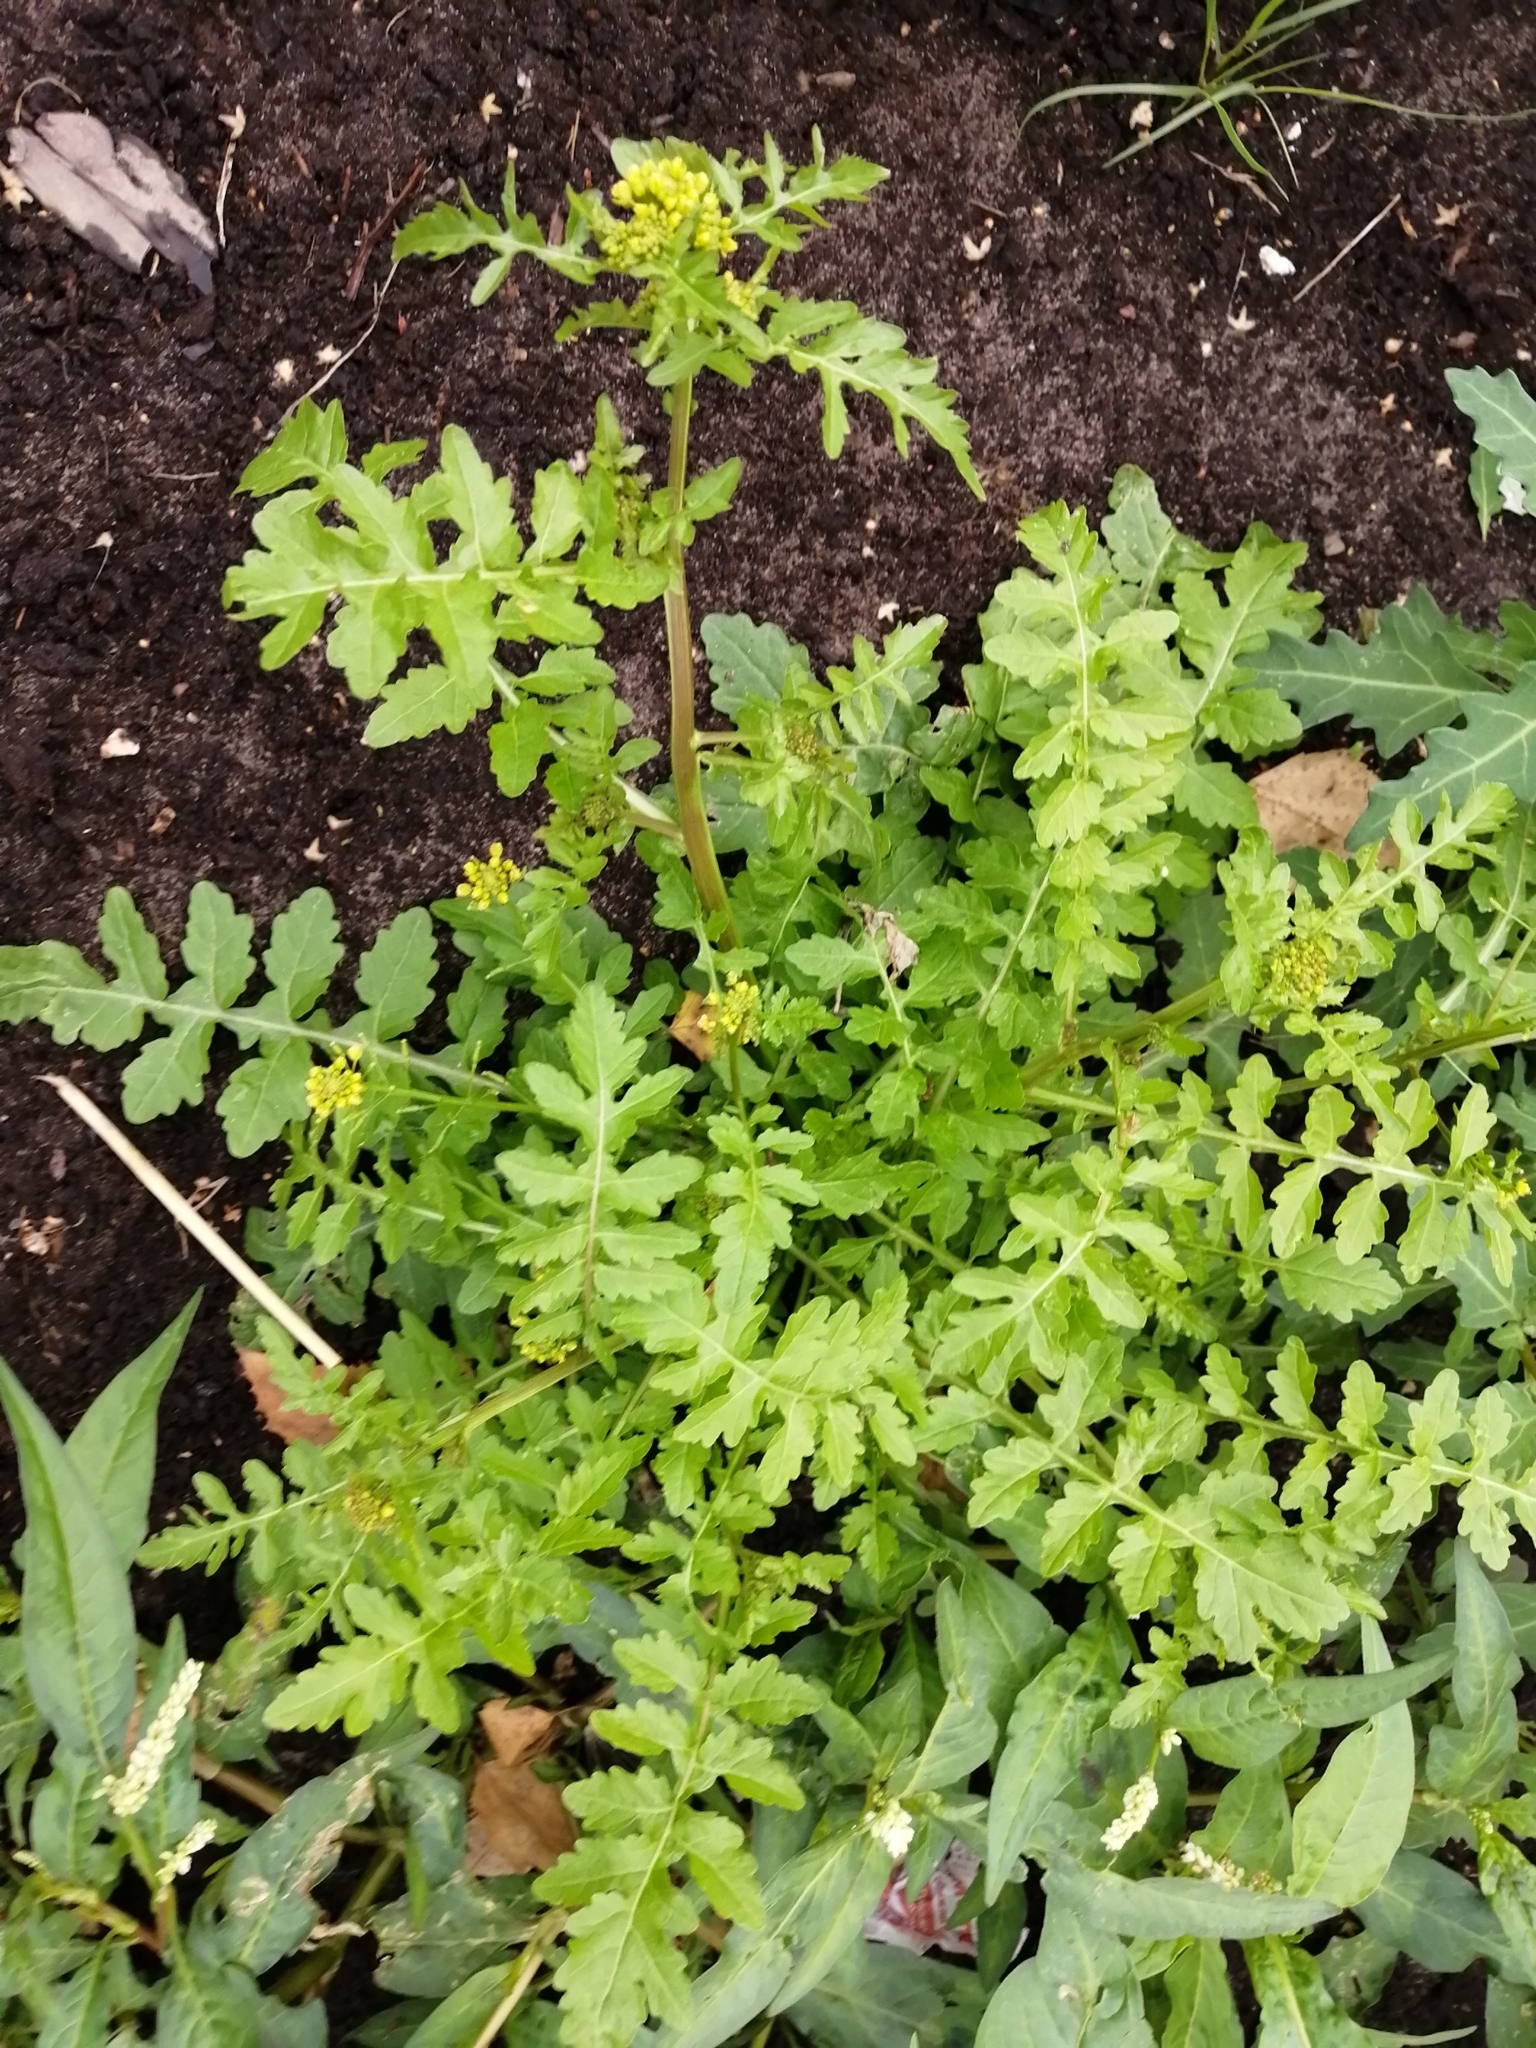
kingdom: Plantae
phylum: Tracheophyta
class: Magnoliopsida
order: Brassicales
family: Brassicaceae
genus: Rorippa
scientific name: Rorippa palustris
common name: Marsh yellow-cress
